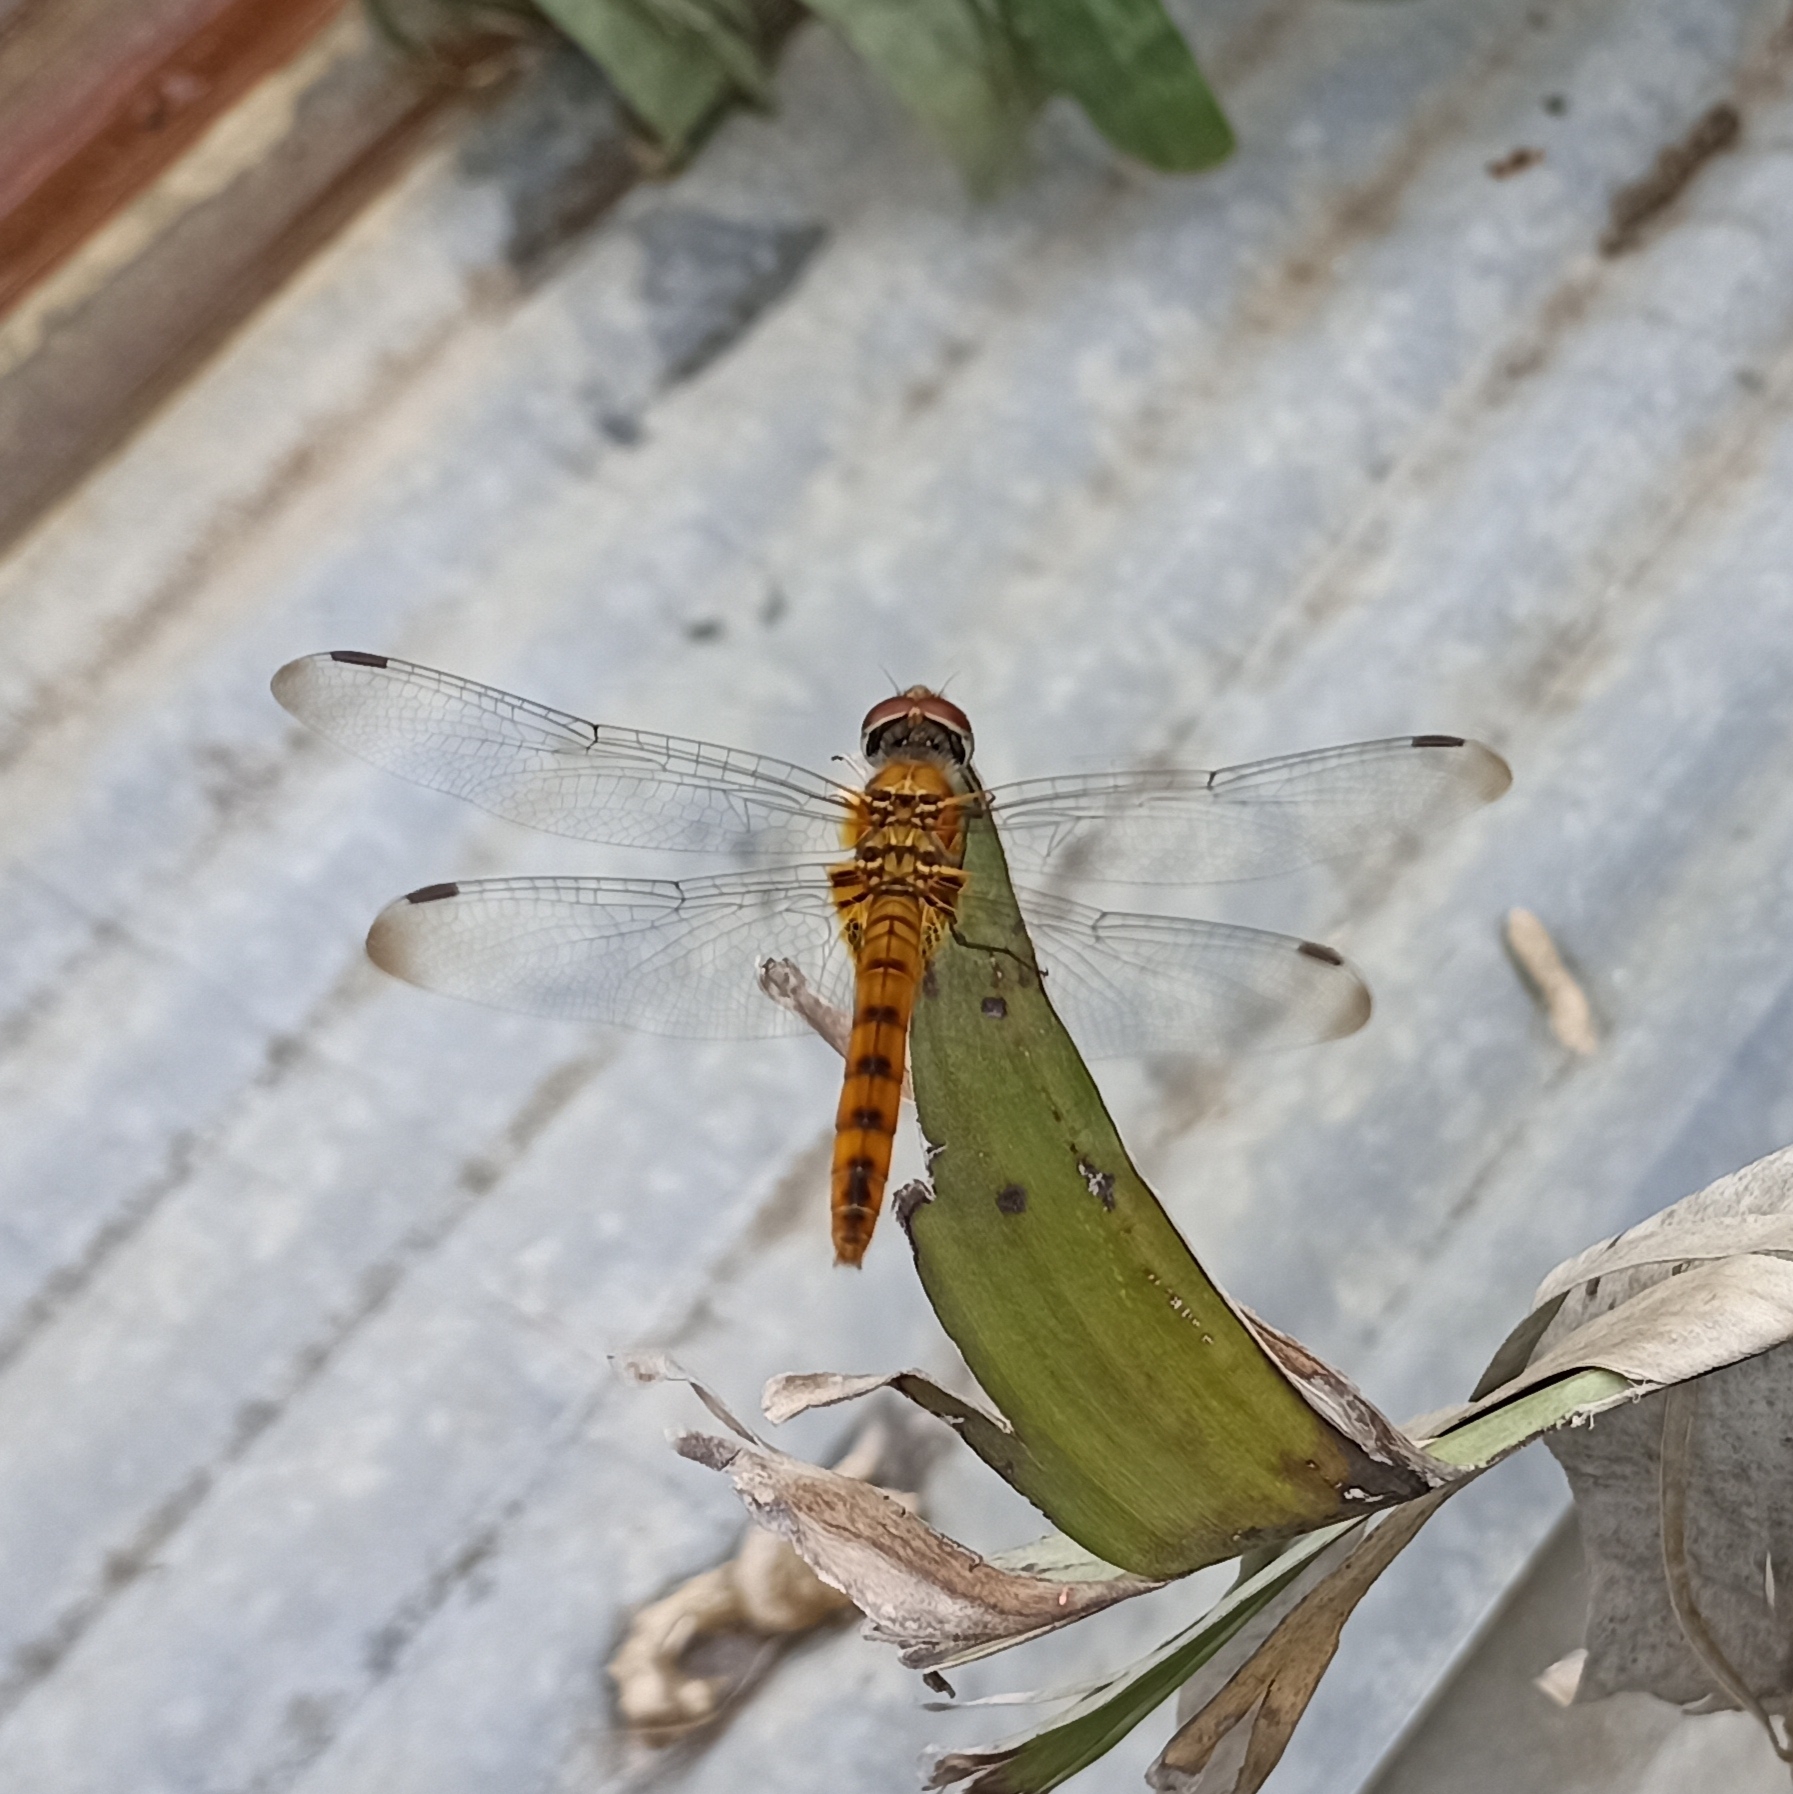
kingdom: Animalia
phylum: Arthropoda
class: Insecta
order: Odonata
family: Libellulidae
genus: Urothemis
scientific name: Urothemis signata
